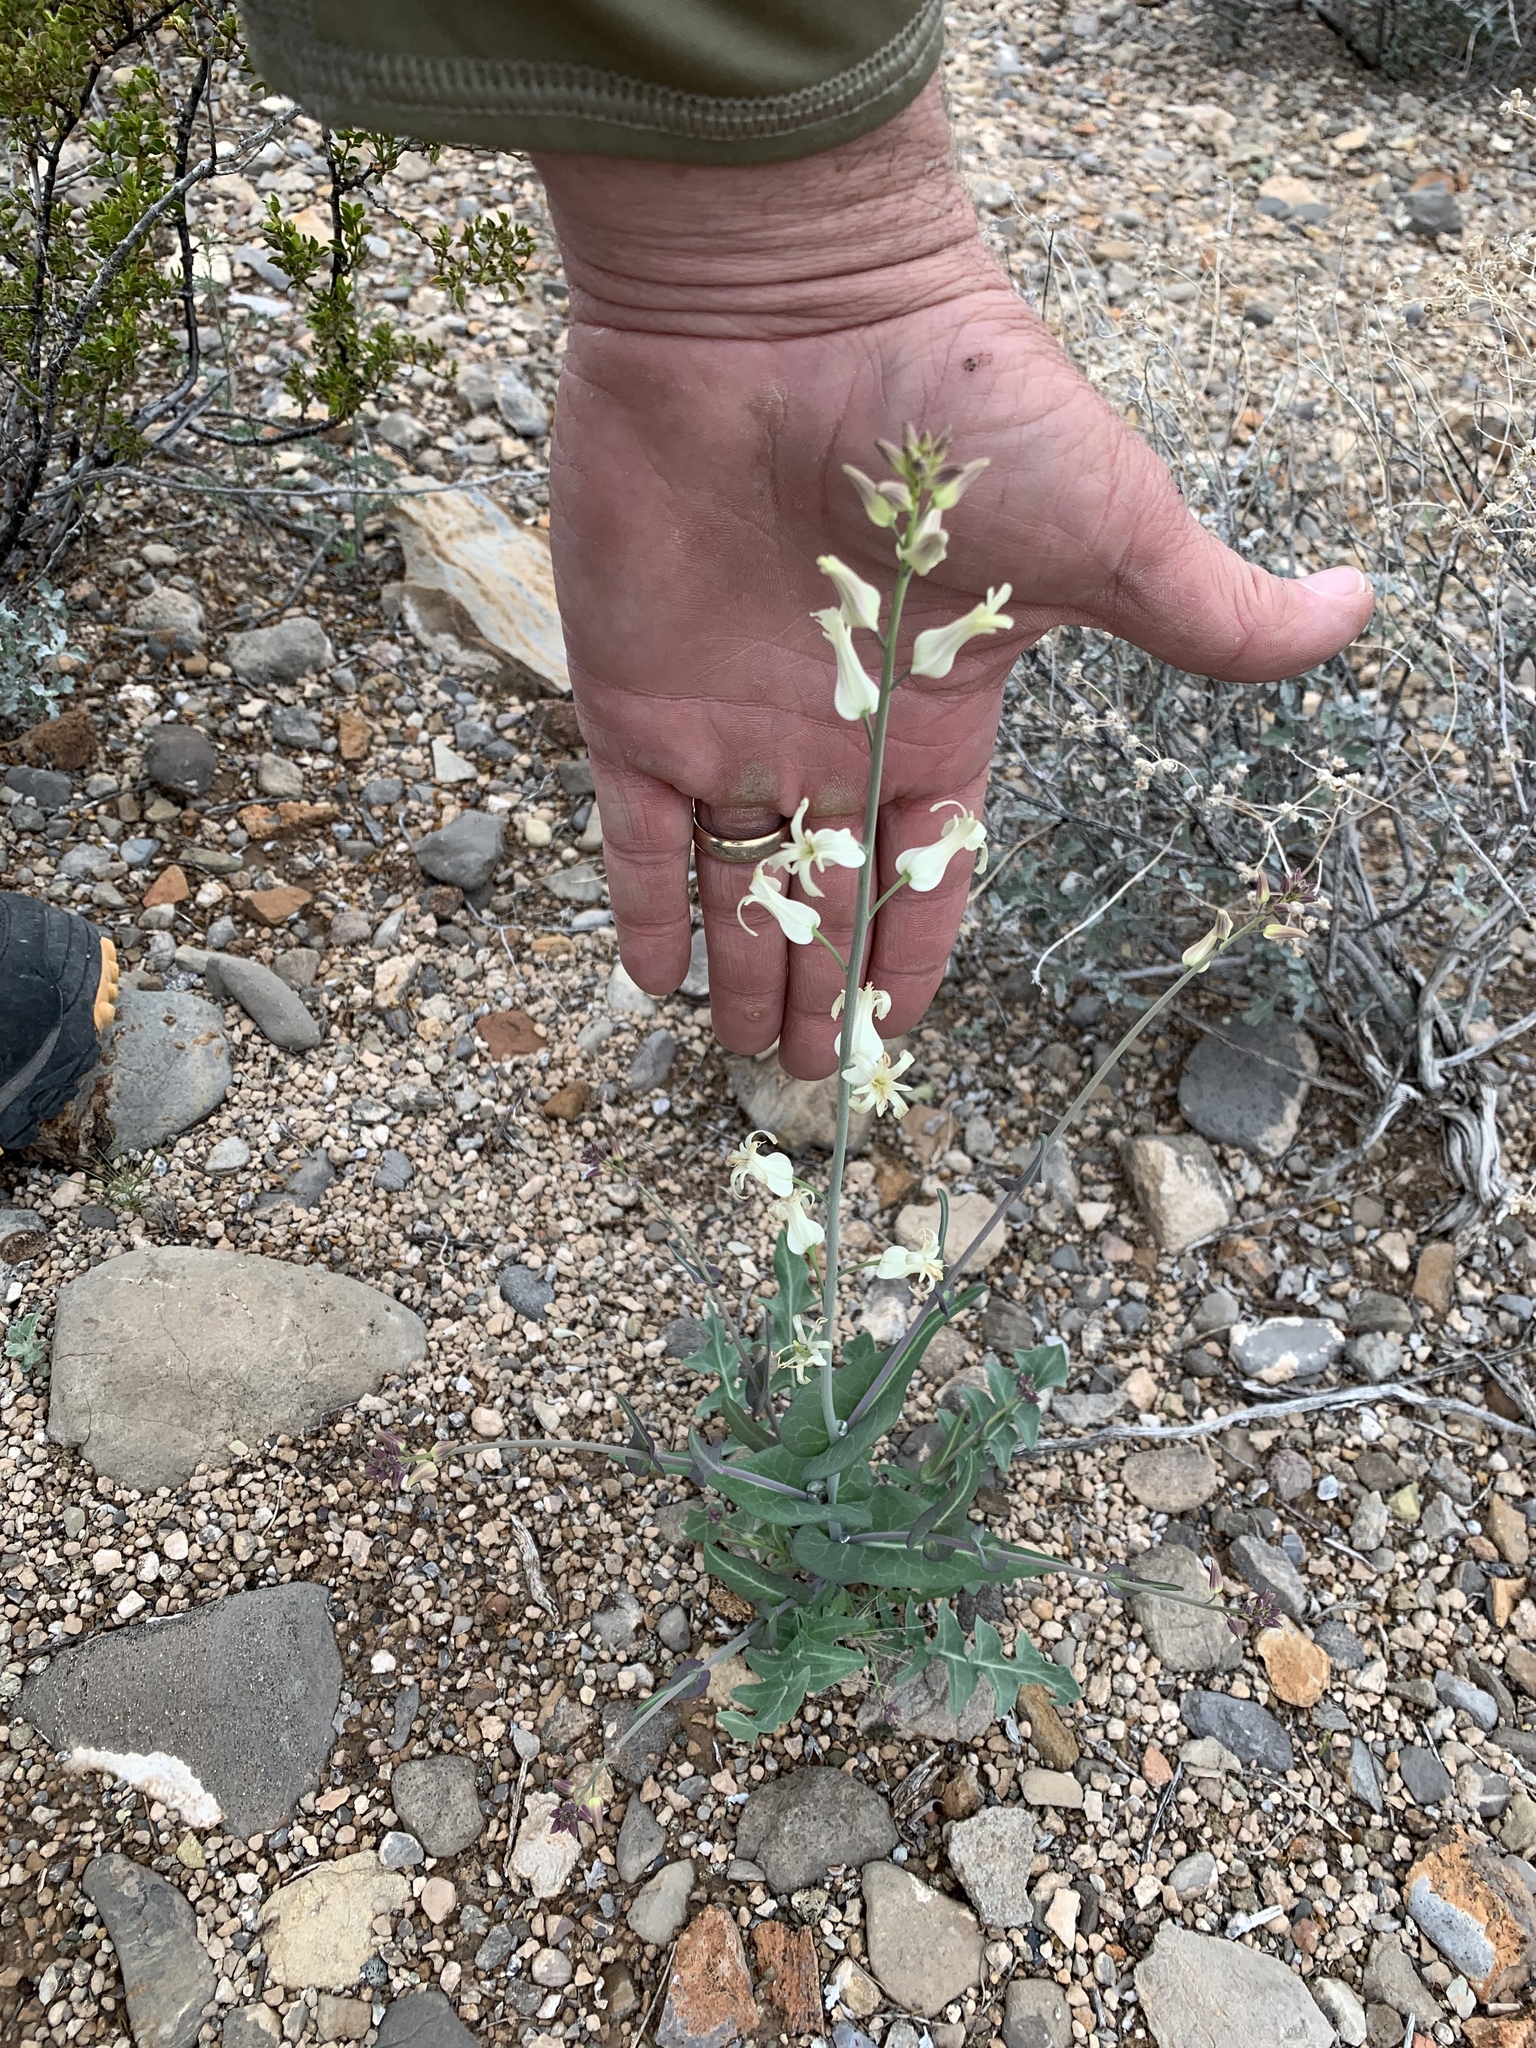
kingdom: Plantae
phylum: Tracheophyta
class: Magnoliopsida
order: Brassicales
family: Brassicaceae
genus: Streptanthus
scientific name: Streptanthus carinatus
